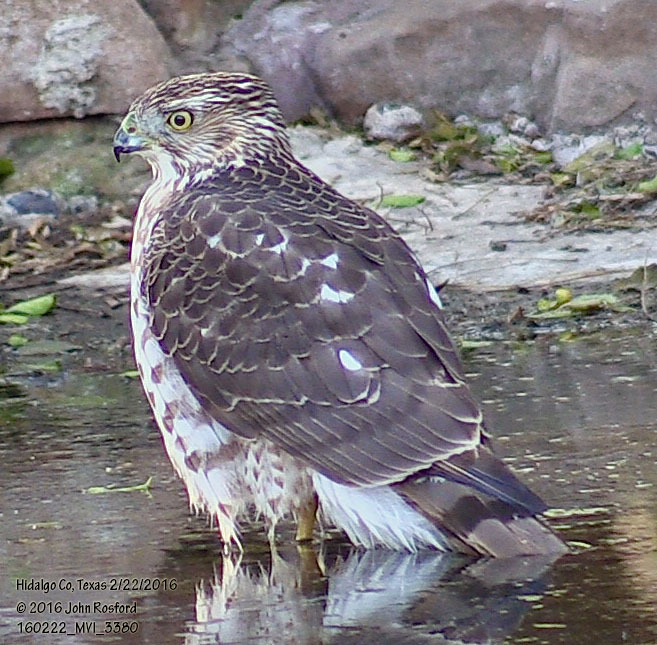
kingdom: Animalia
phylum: Chordata
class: Aves
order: Accipitriformes
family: Accipitridae
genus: Accipiter
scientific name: Accipiter cooperii
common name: Cooper's hawk
